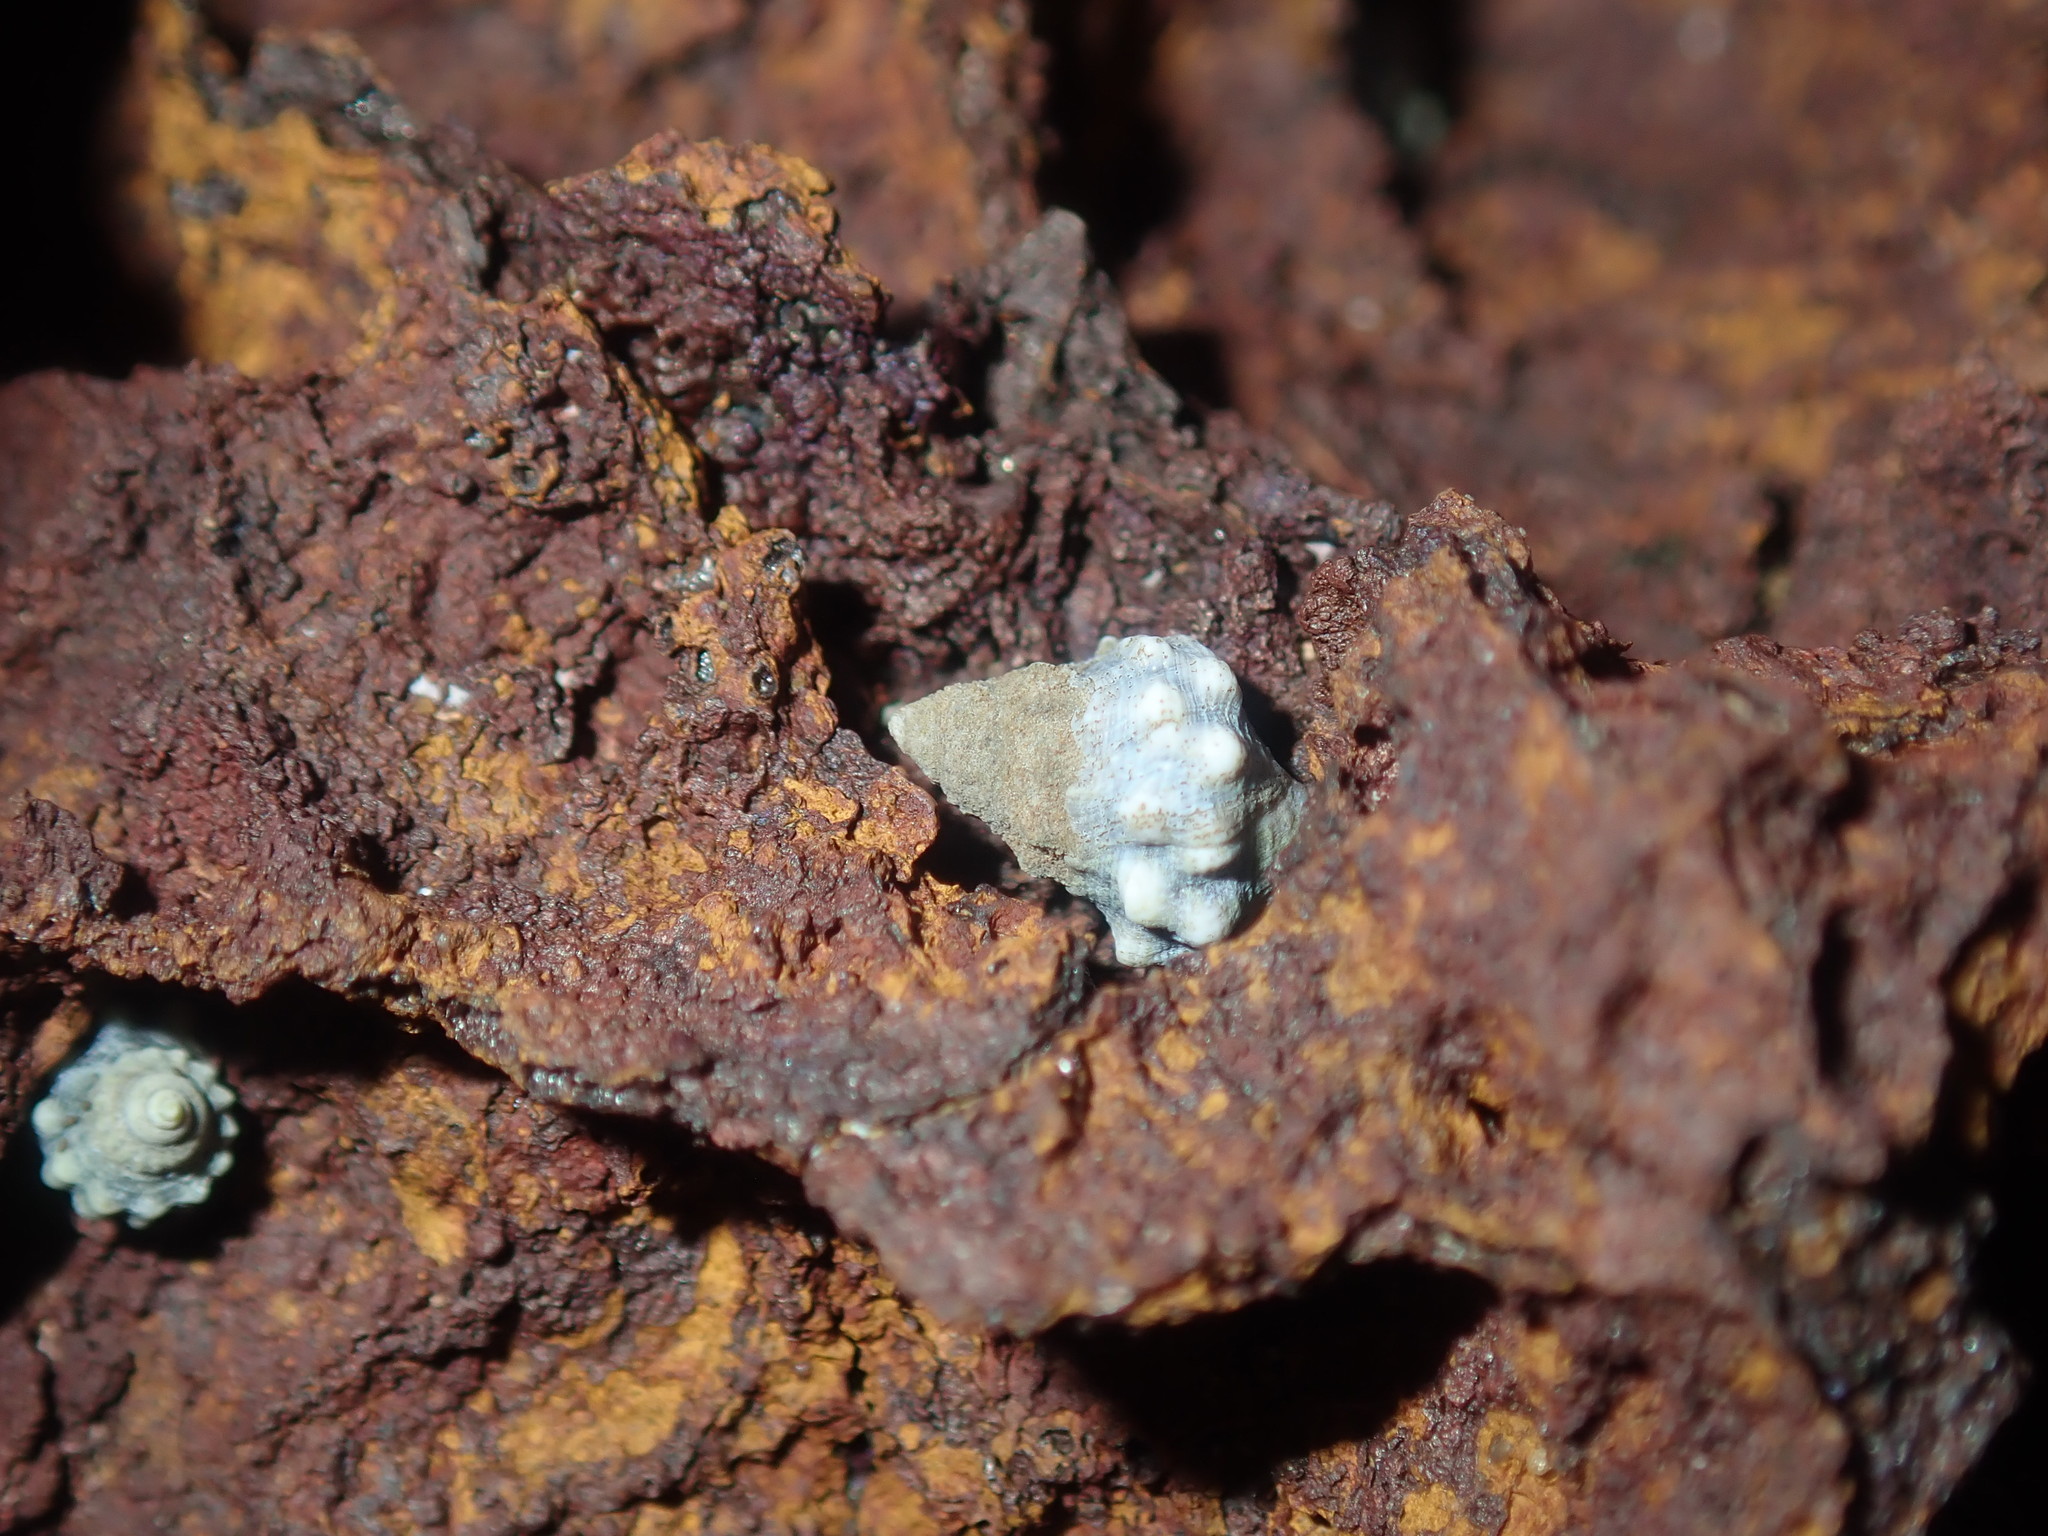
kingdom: Animalia
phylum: Mollusca
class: Gastropoda
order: Littorinimorpha
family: Littorinidae
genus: Nodilittorina
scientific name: Nodilittorina pyramidalis
